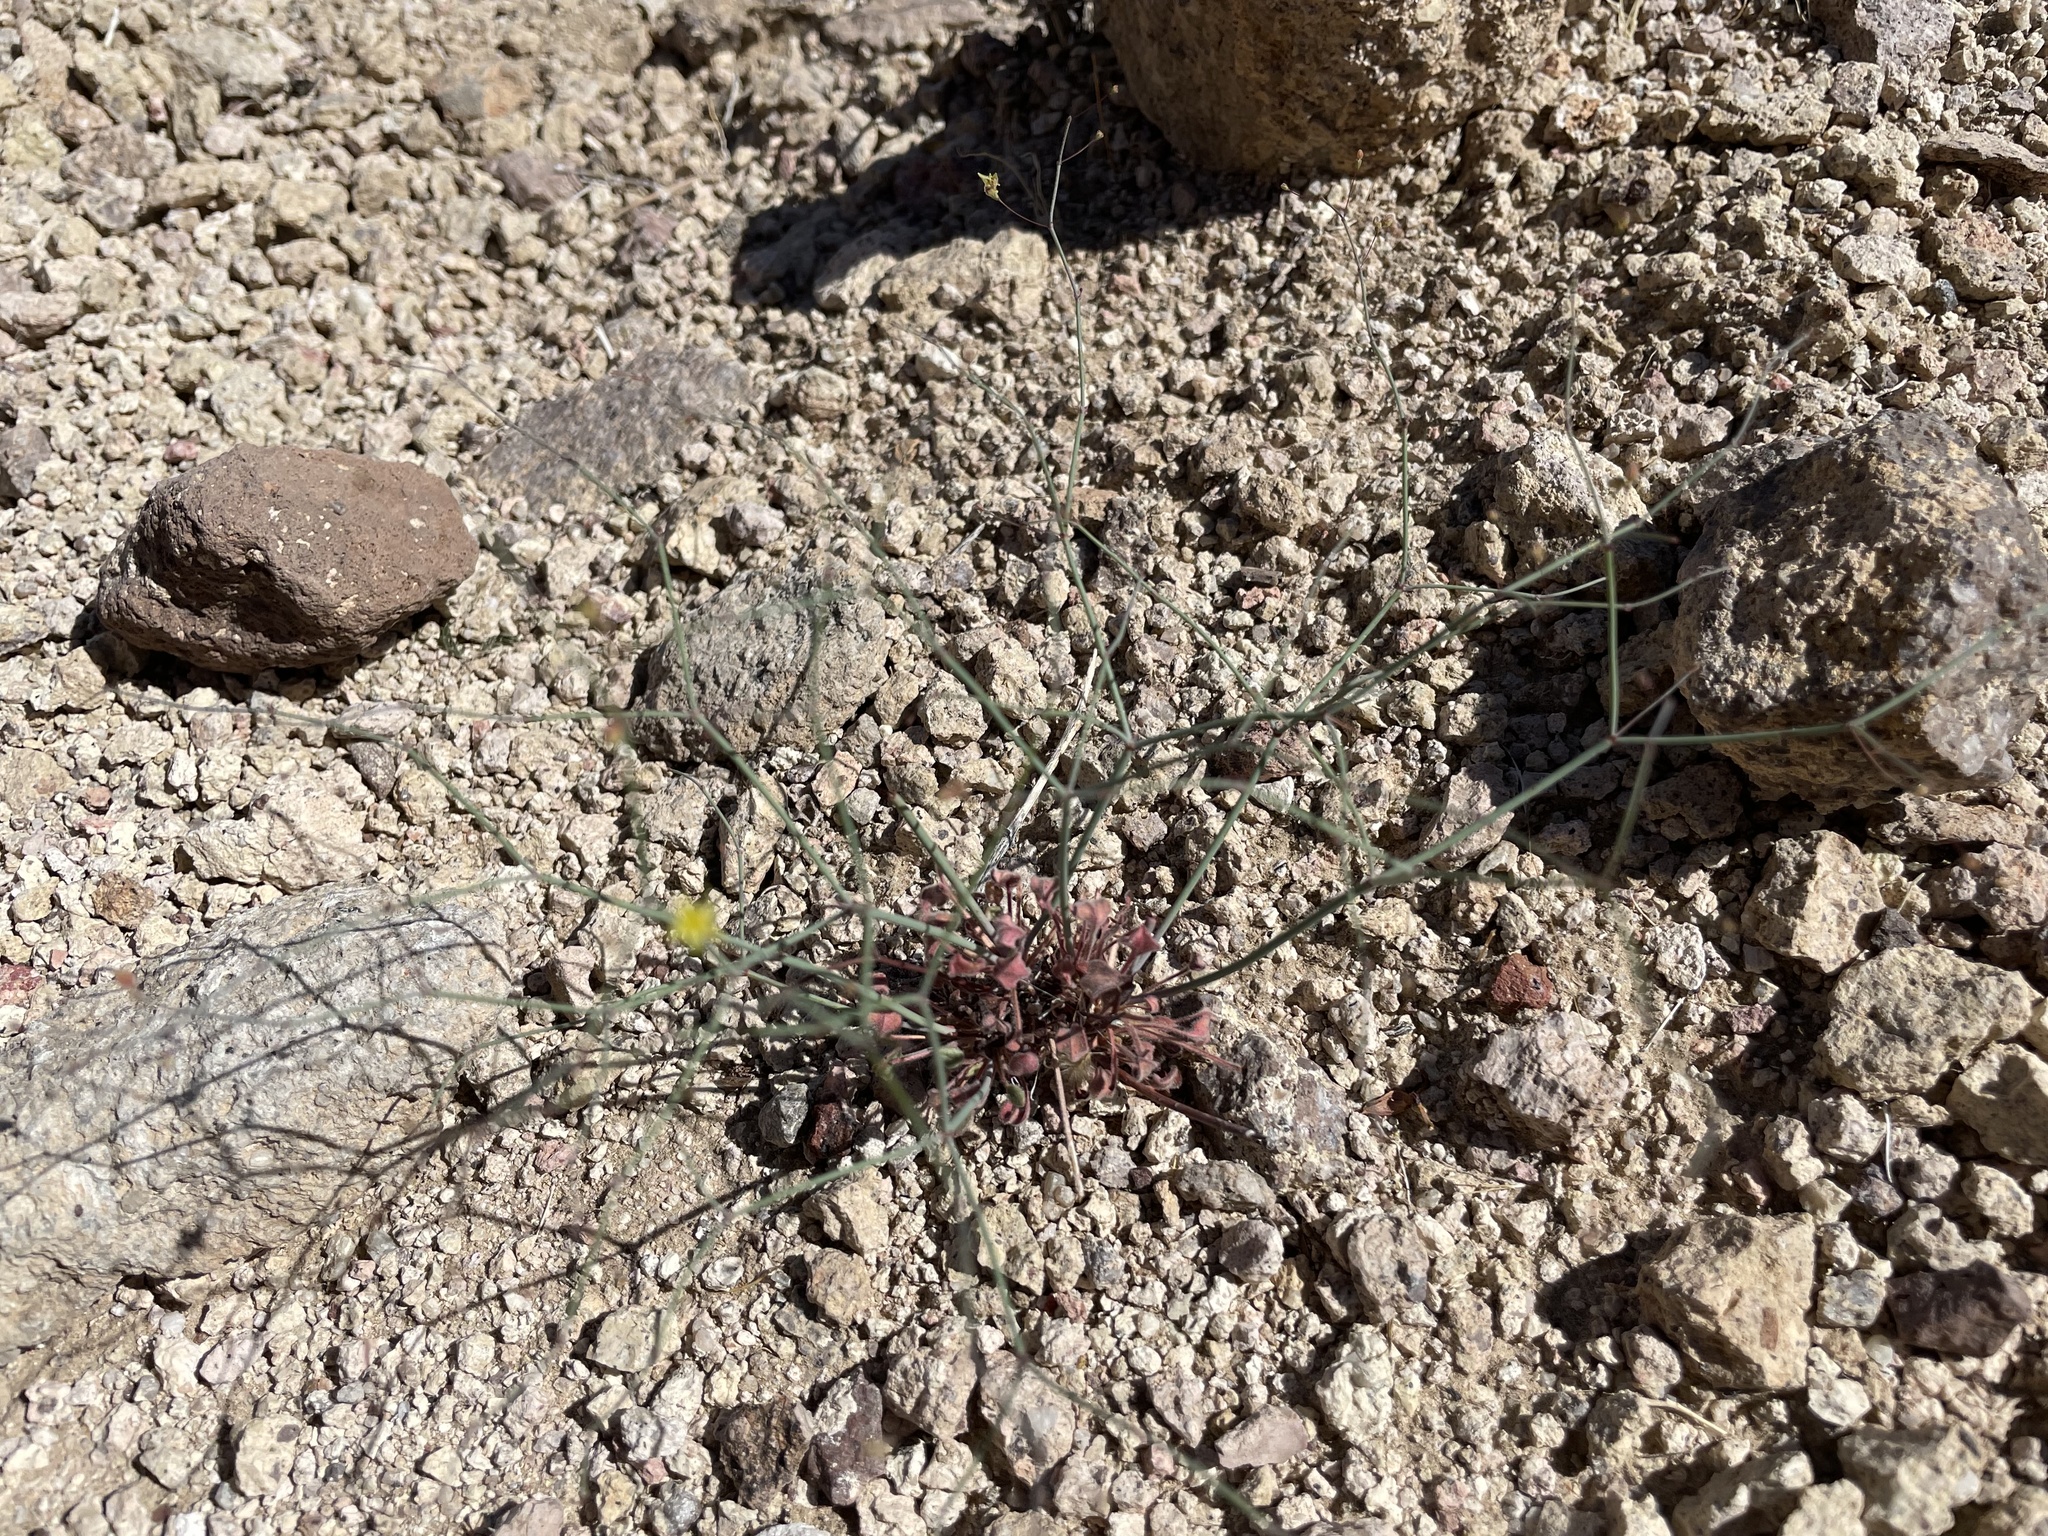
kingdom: Plantae
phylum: Tracheophyta
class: Magnoliopsida
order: Caryophyllales
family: Polygonaceae
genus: Eriogonum
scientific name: Eriogonum trichopes
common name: Little desert trumpet
